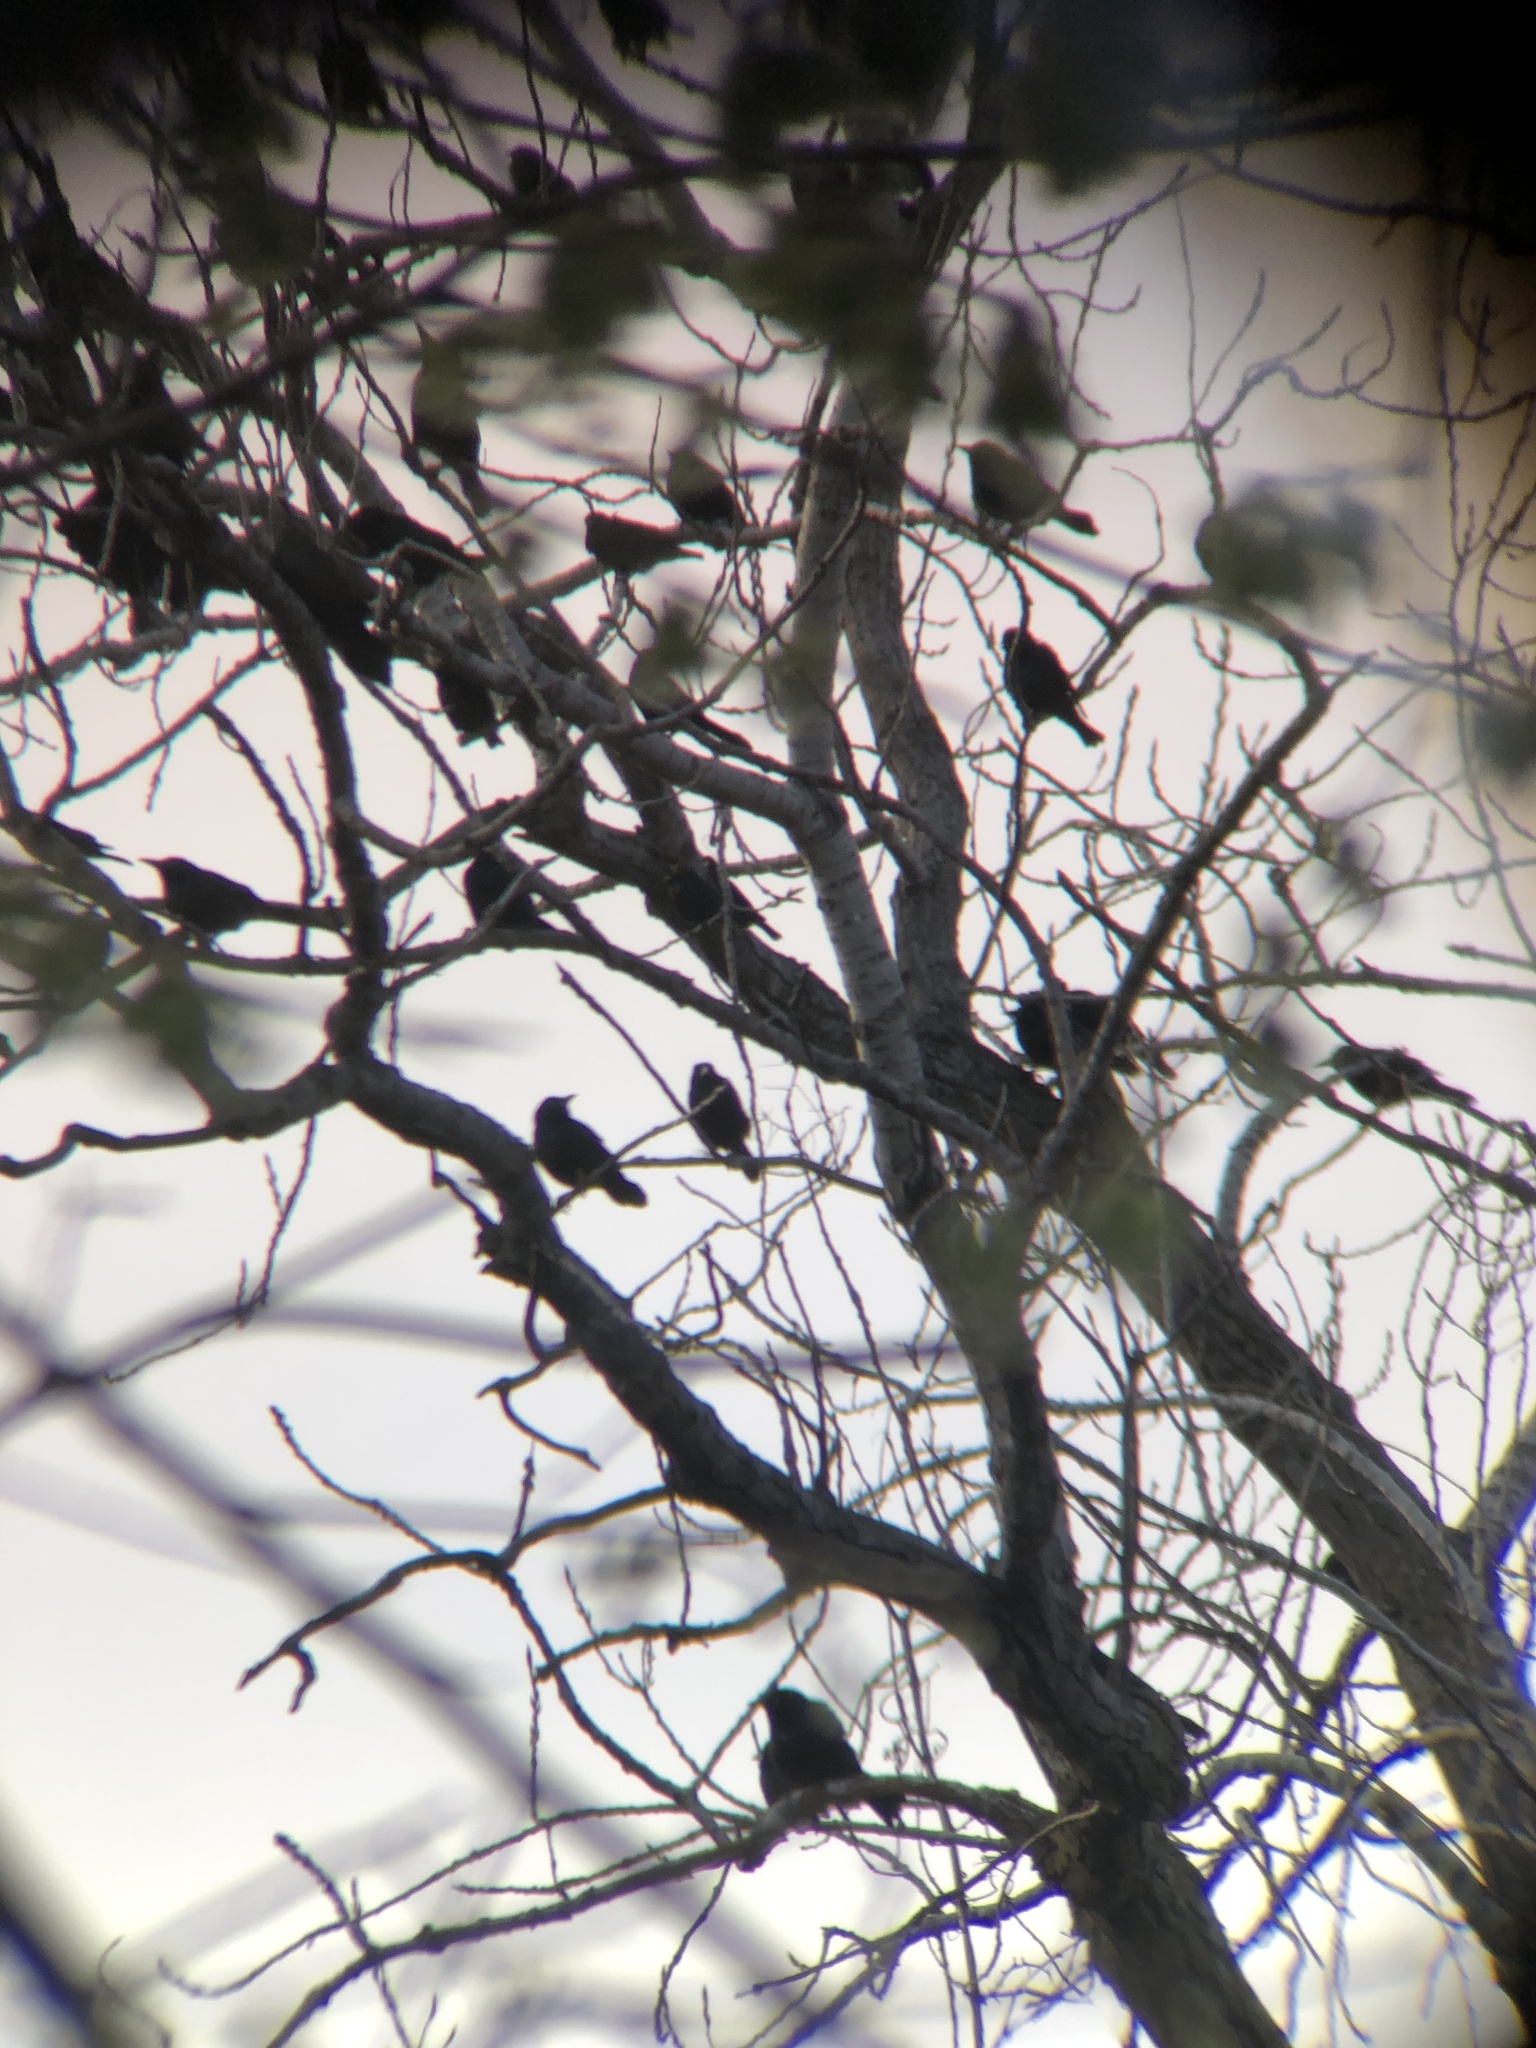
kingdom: Animalia
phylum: Chordata
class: Aves
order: Passeriformes
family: Icteridae
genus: Quiscalus
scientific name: Quiscalus quiscula
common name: Common grackle
